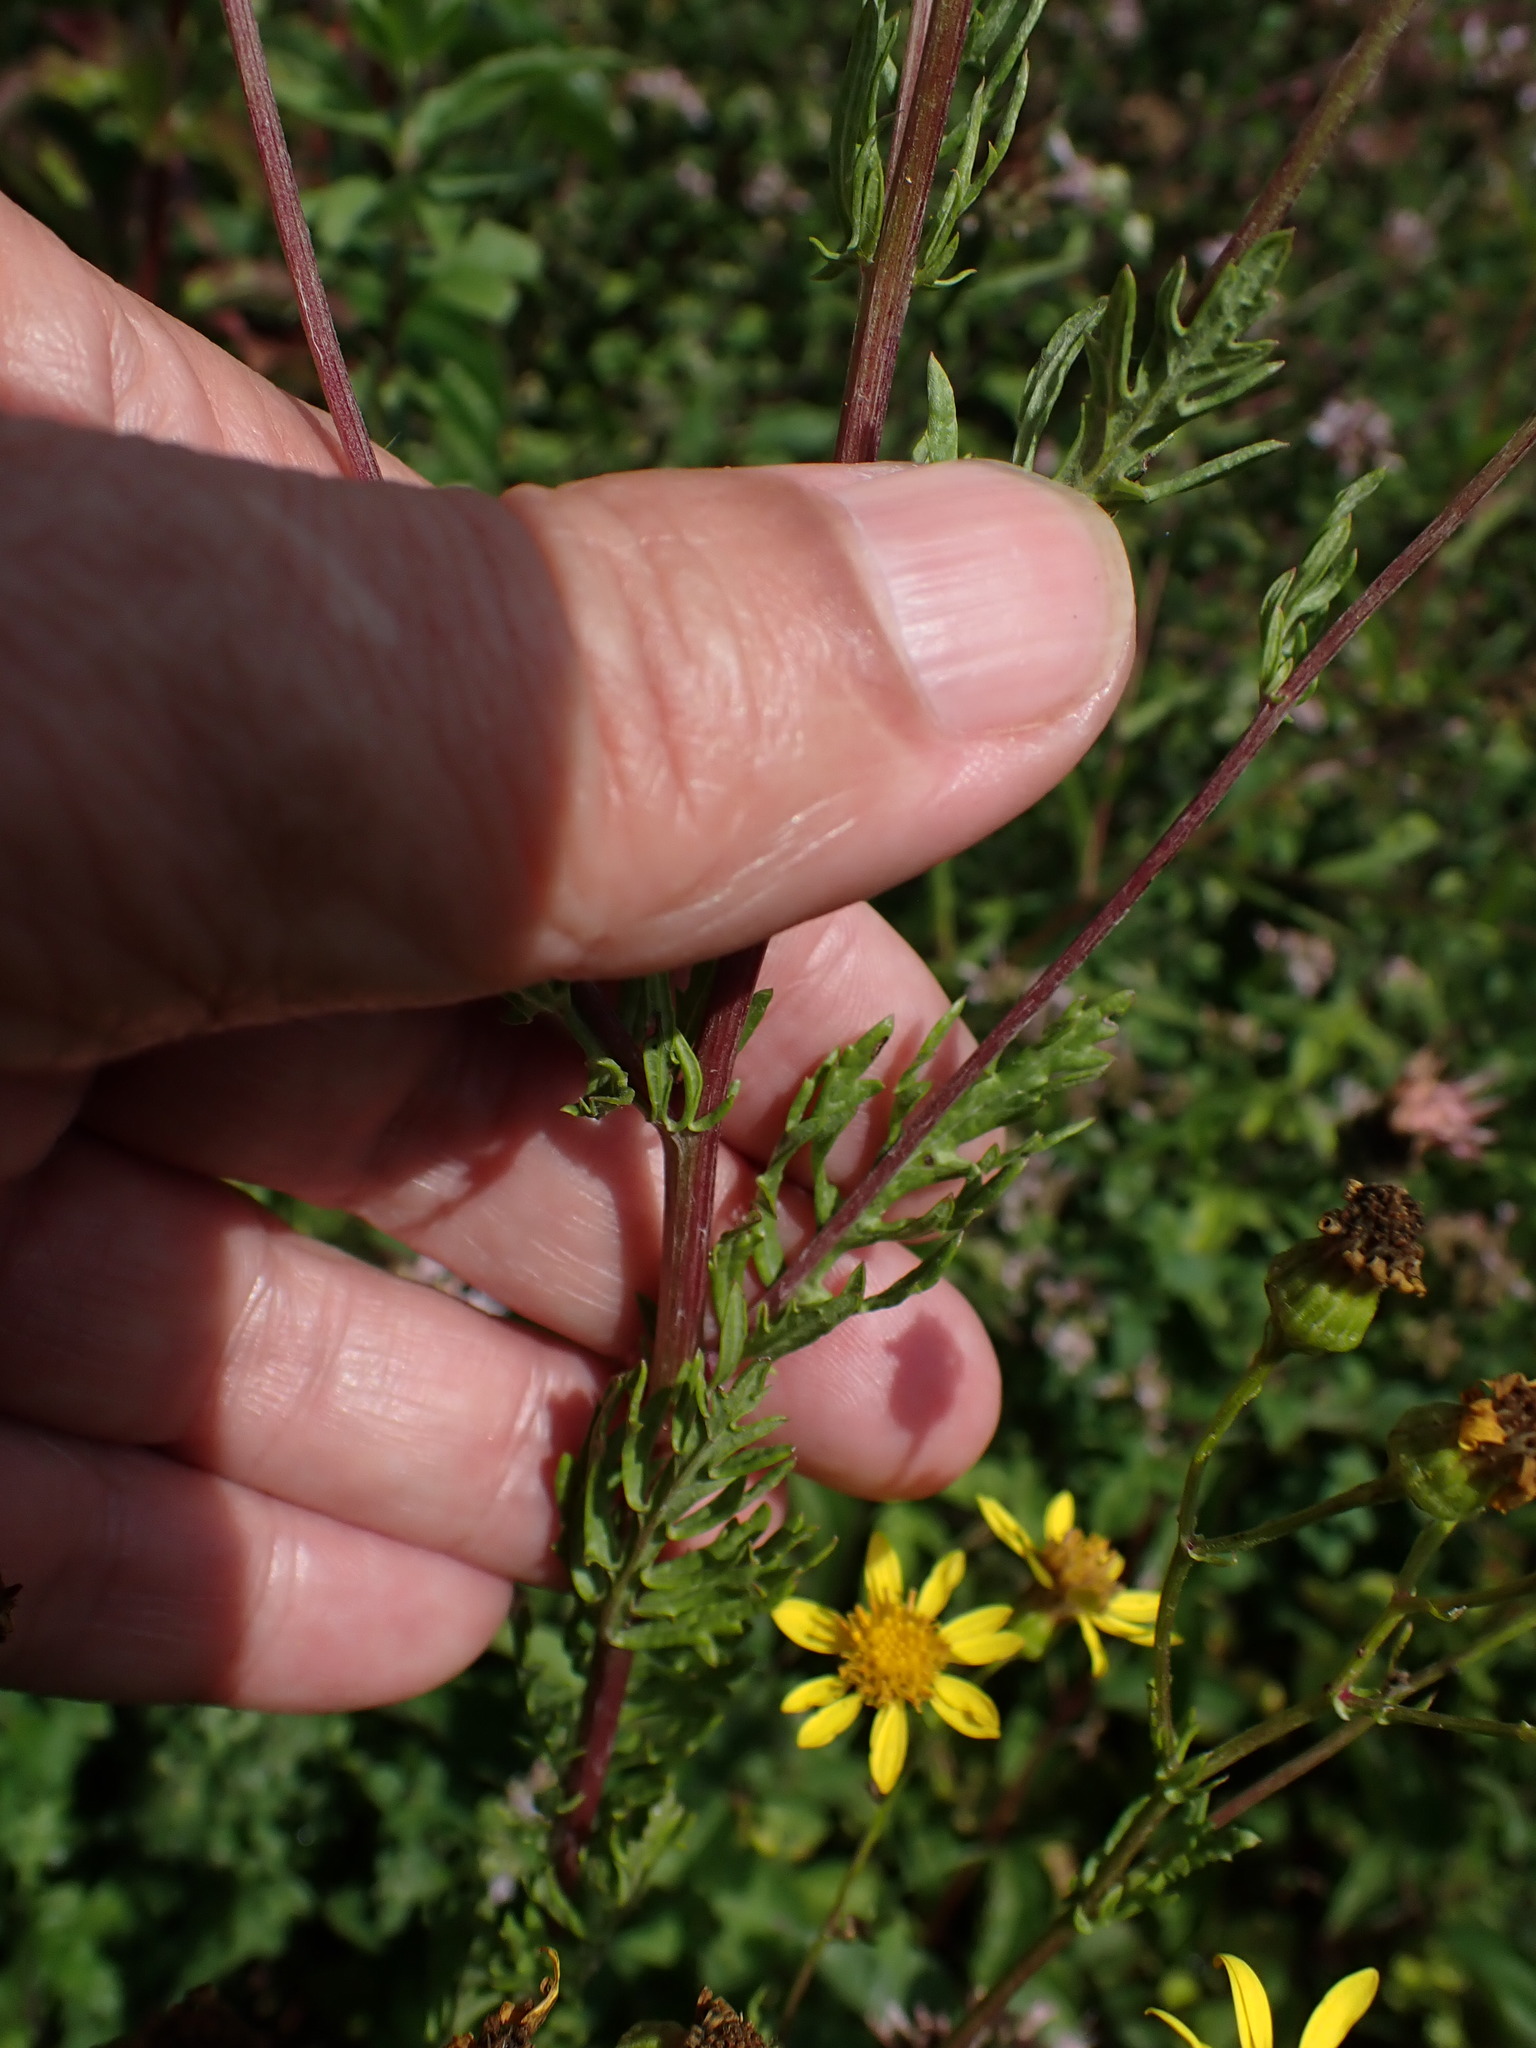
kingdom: Plantae
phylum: Tracheophyta
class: Magnoliopsida
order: Asterales
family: Asteraceae
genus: Jacobaea
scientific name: Jacobaea erucifolia
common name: Hoary ragwort
